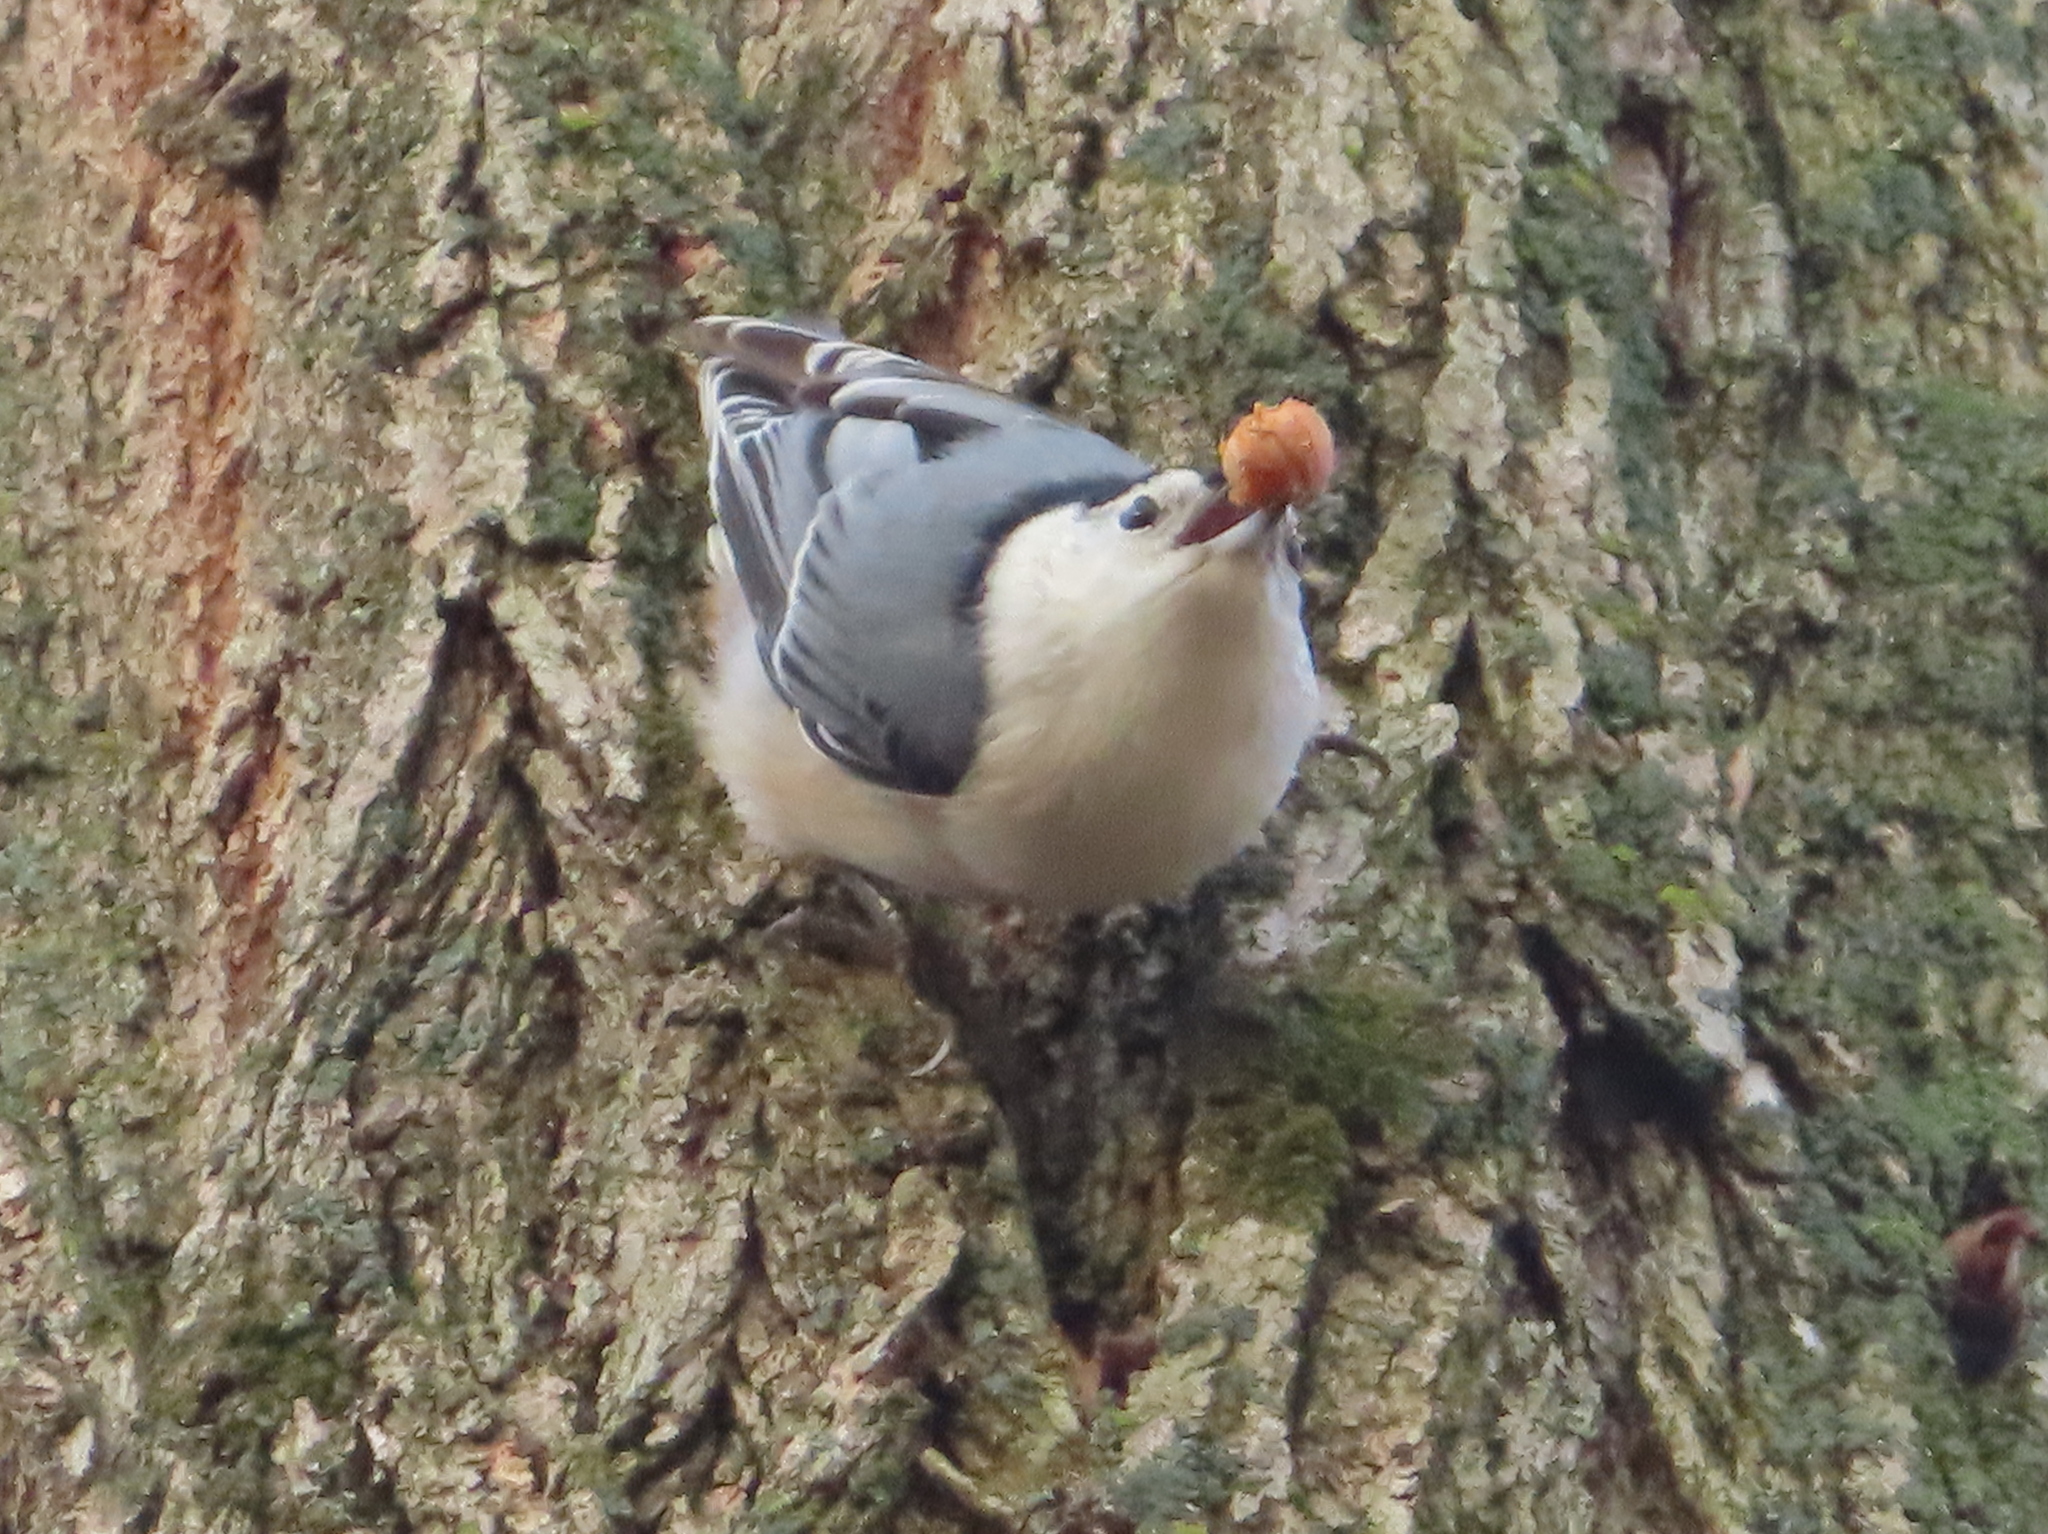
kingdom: Animalia
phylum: Chordata
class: Aves
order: Passeriformes
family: Sittidae
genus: Sitta
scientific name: Sitta carolinensis
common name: White-breasted nuthatch
